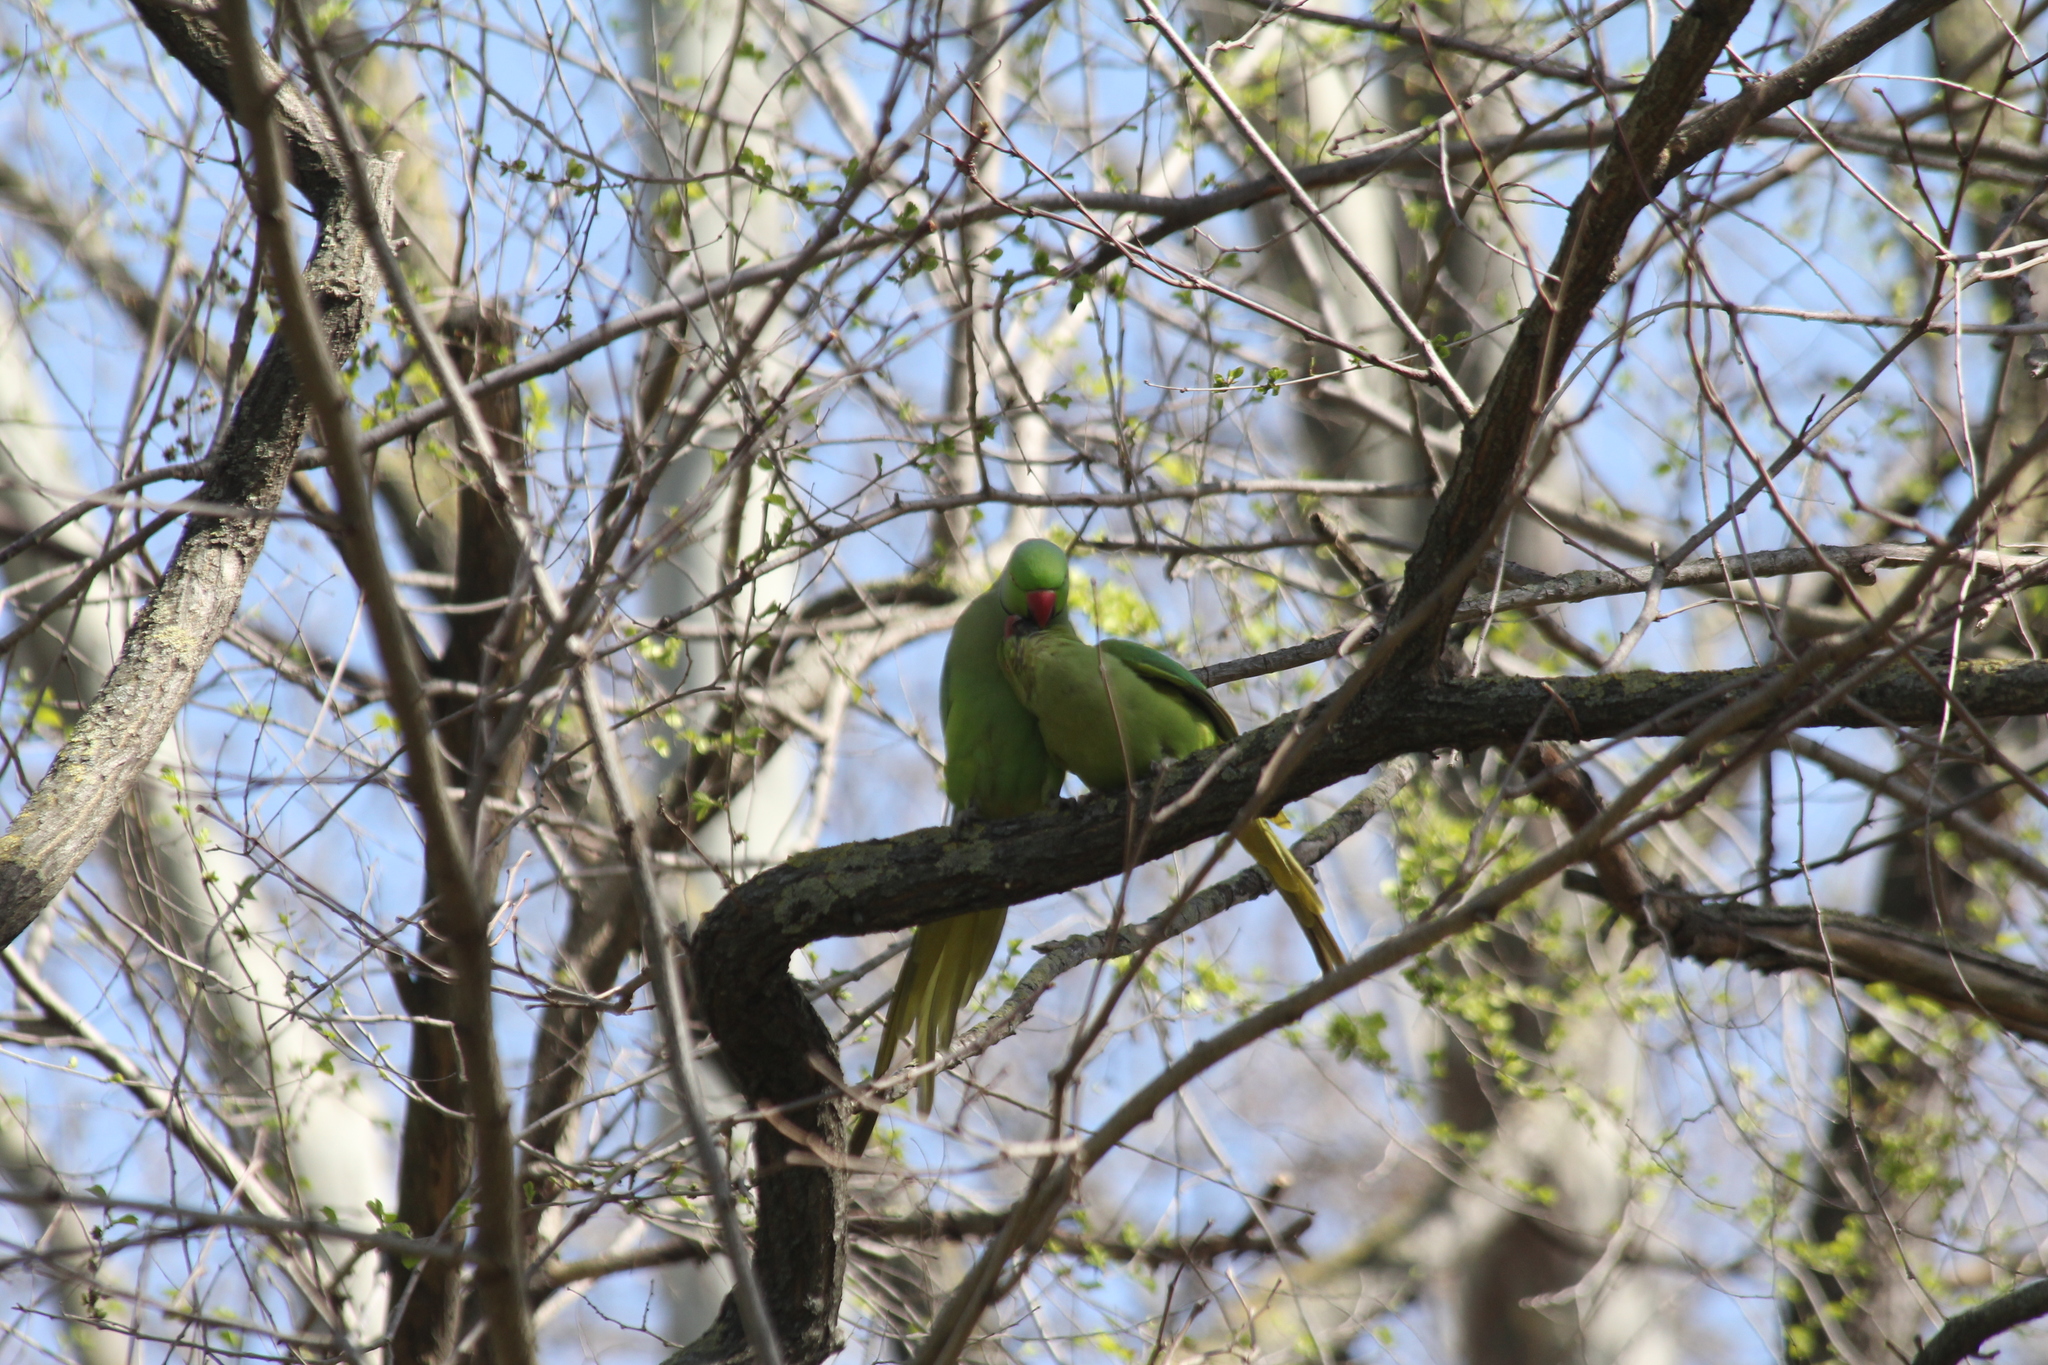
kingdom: Animalia
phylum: Chordata
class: Aves
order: Psittaciformes
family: Psittacidae
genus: Psittacula
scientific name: Psittacula krameri
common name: Rose-ringed parakeet
